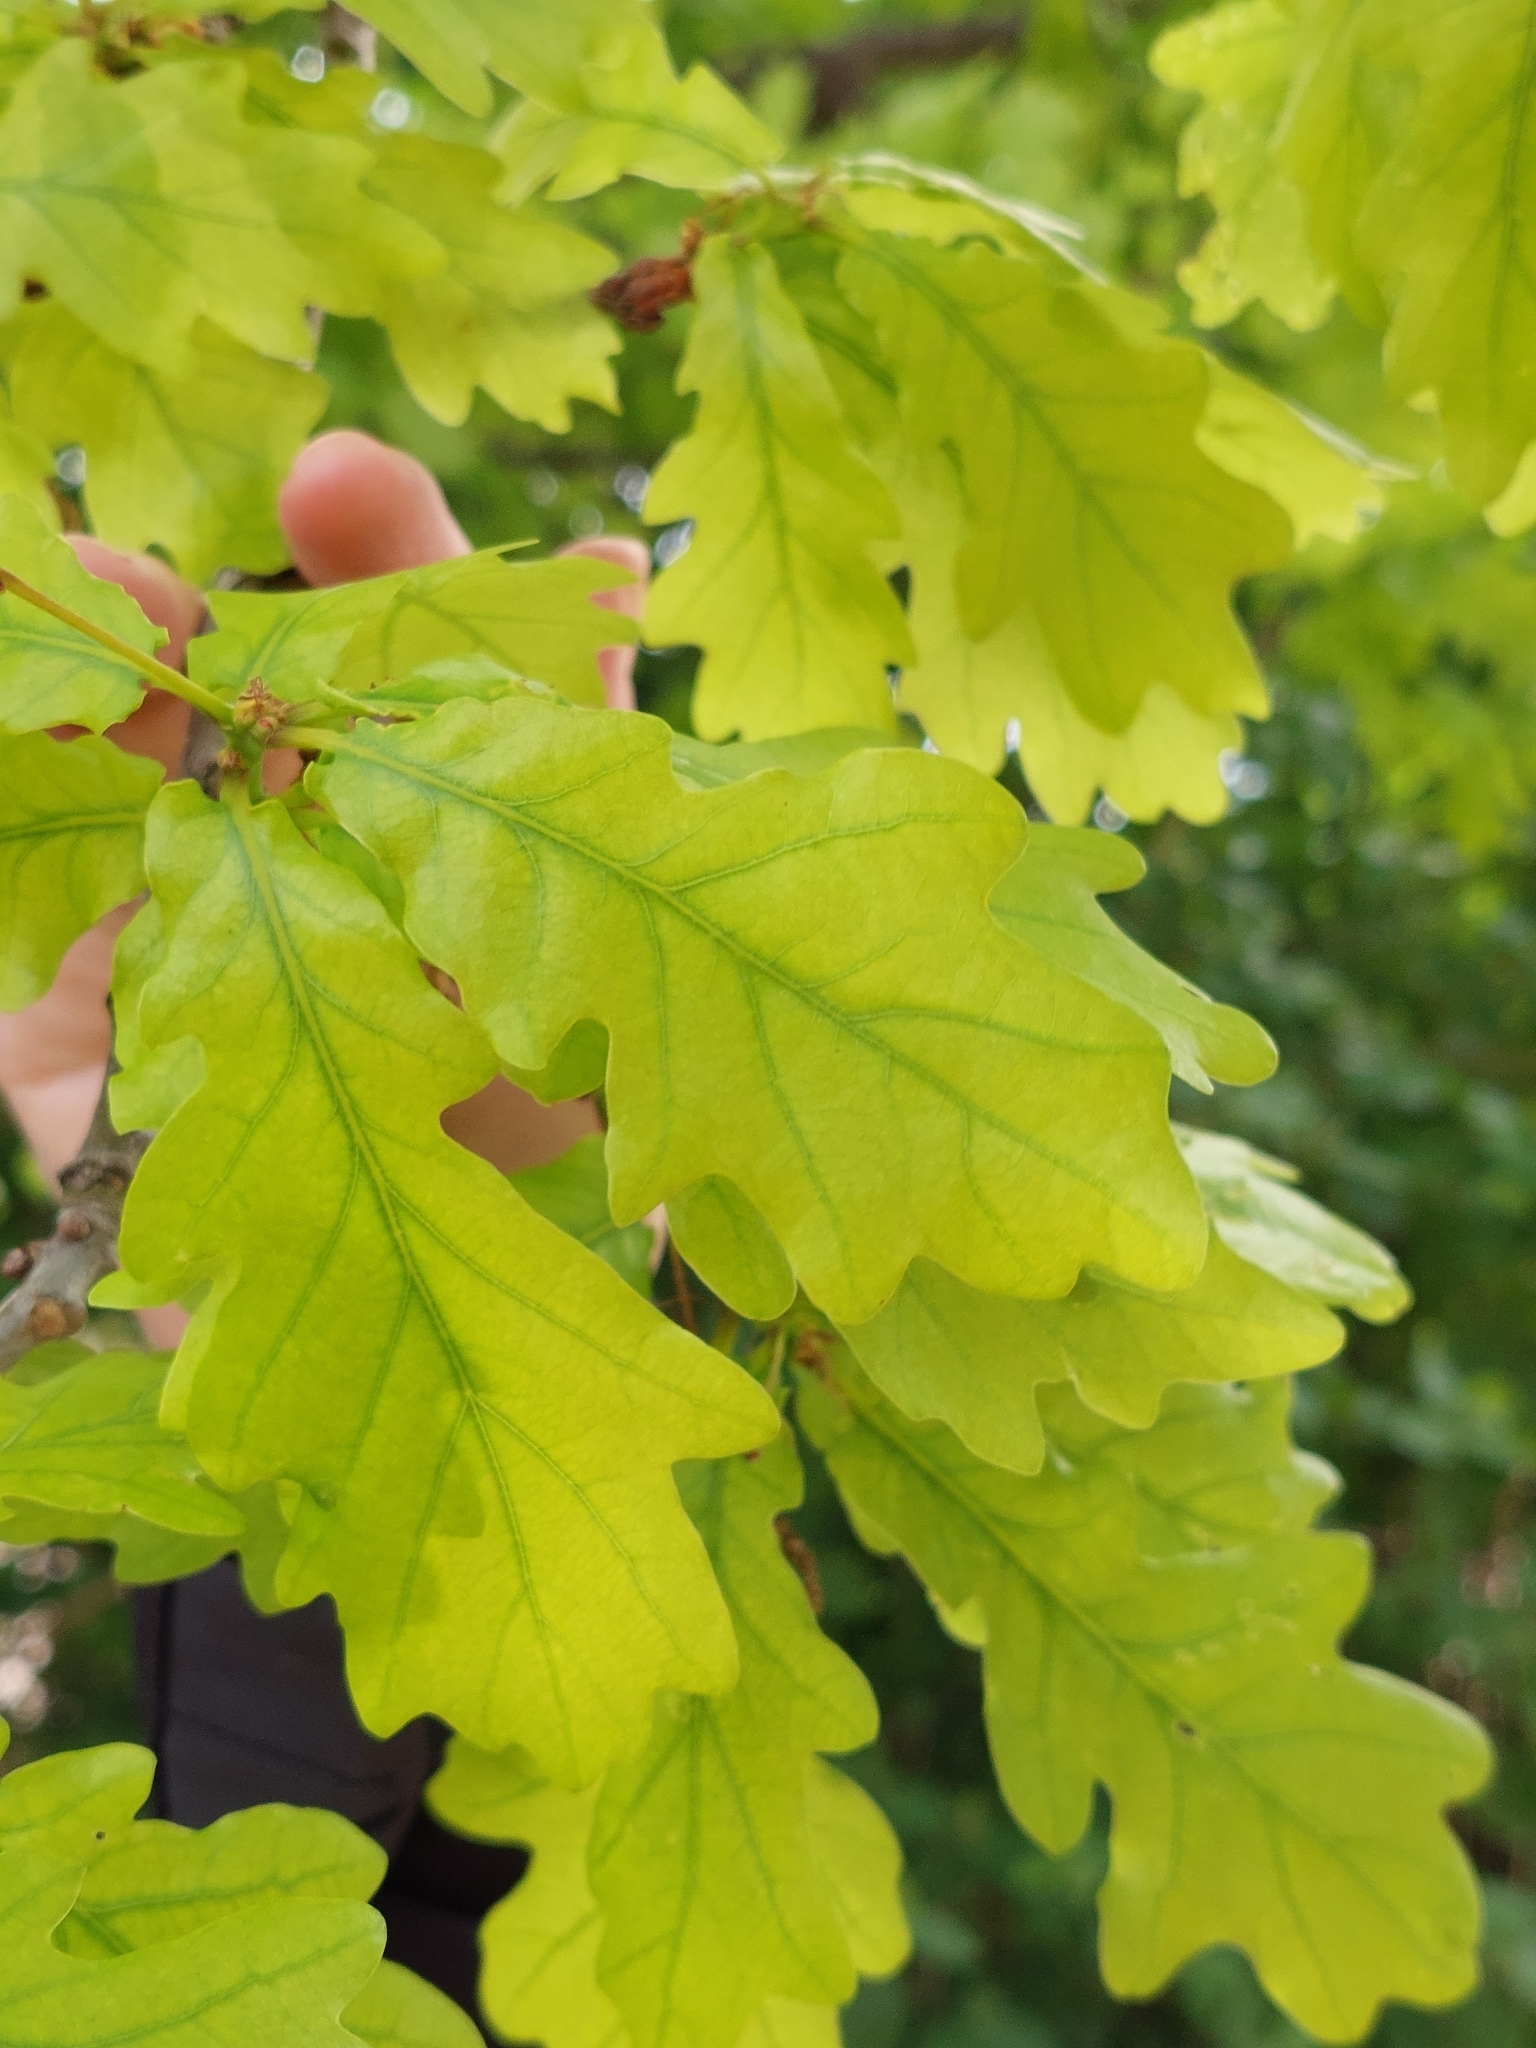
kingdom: Plantae
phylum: Tracheophyta
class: Magnoliopsida
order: Fagales
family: Fagaceae
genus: Quercus
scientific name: Quercus robur
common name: Pedunculate oak
